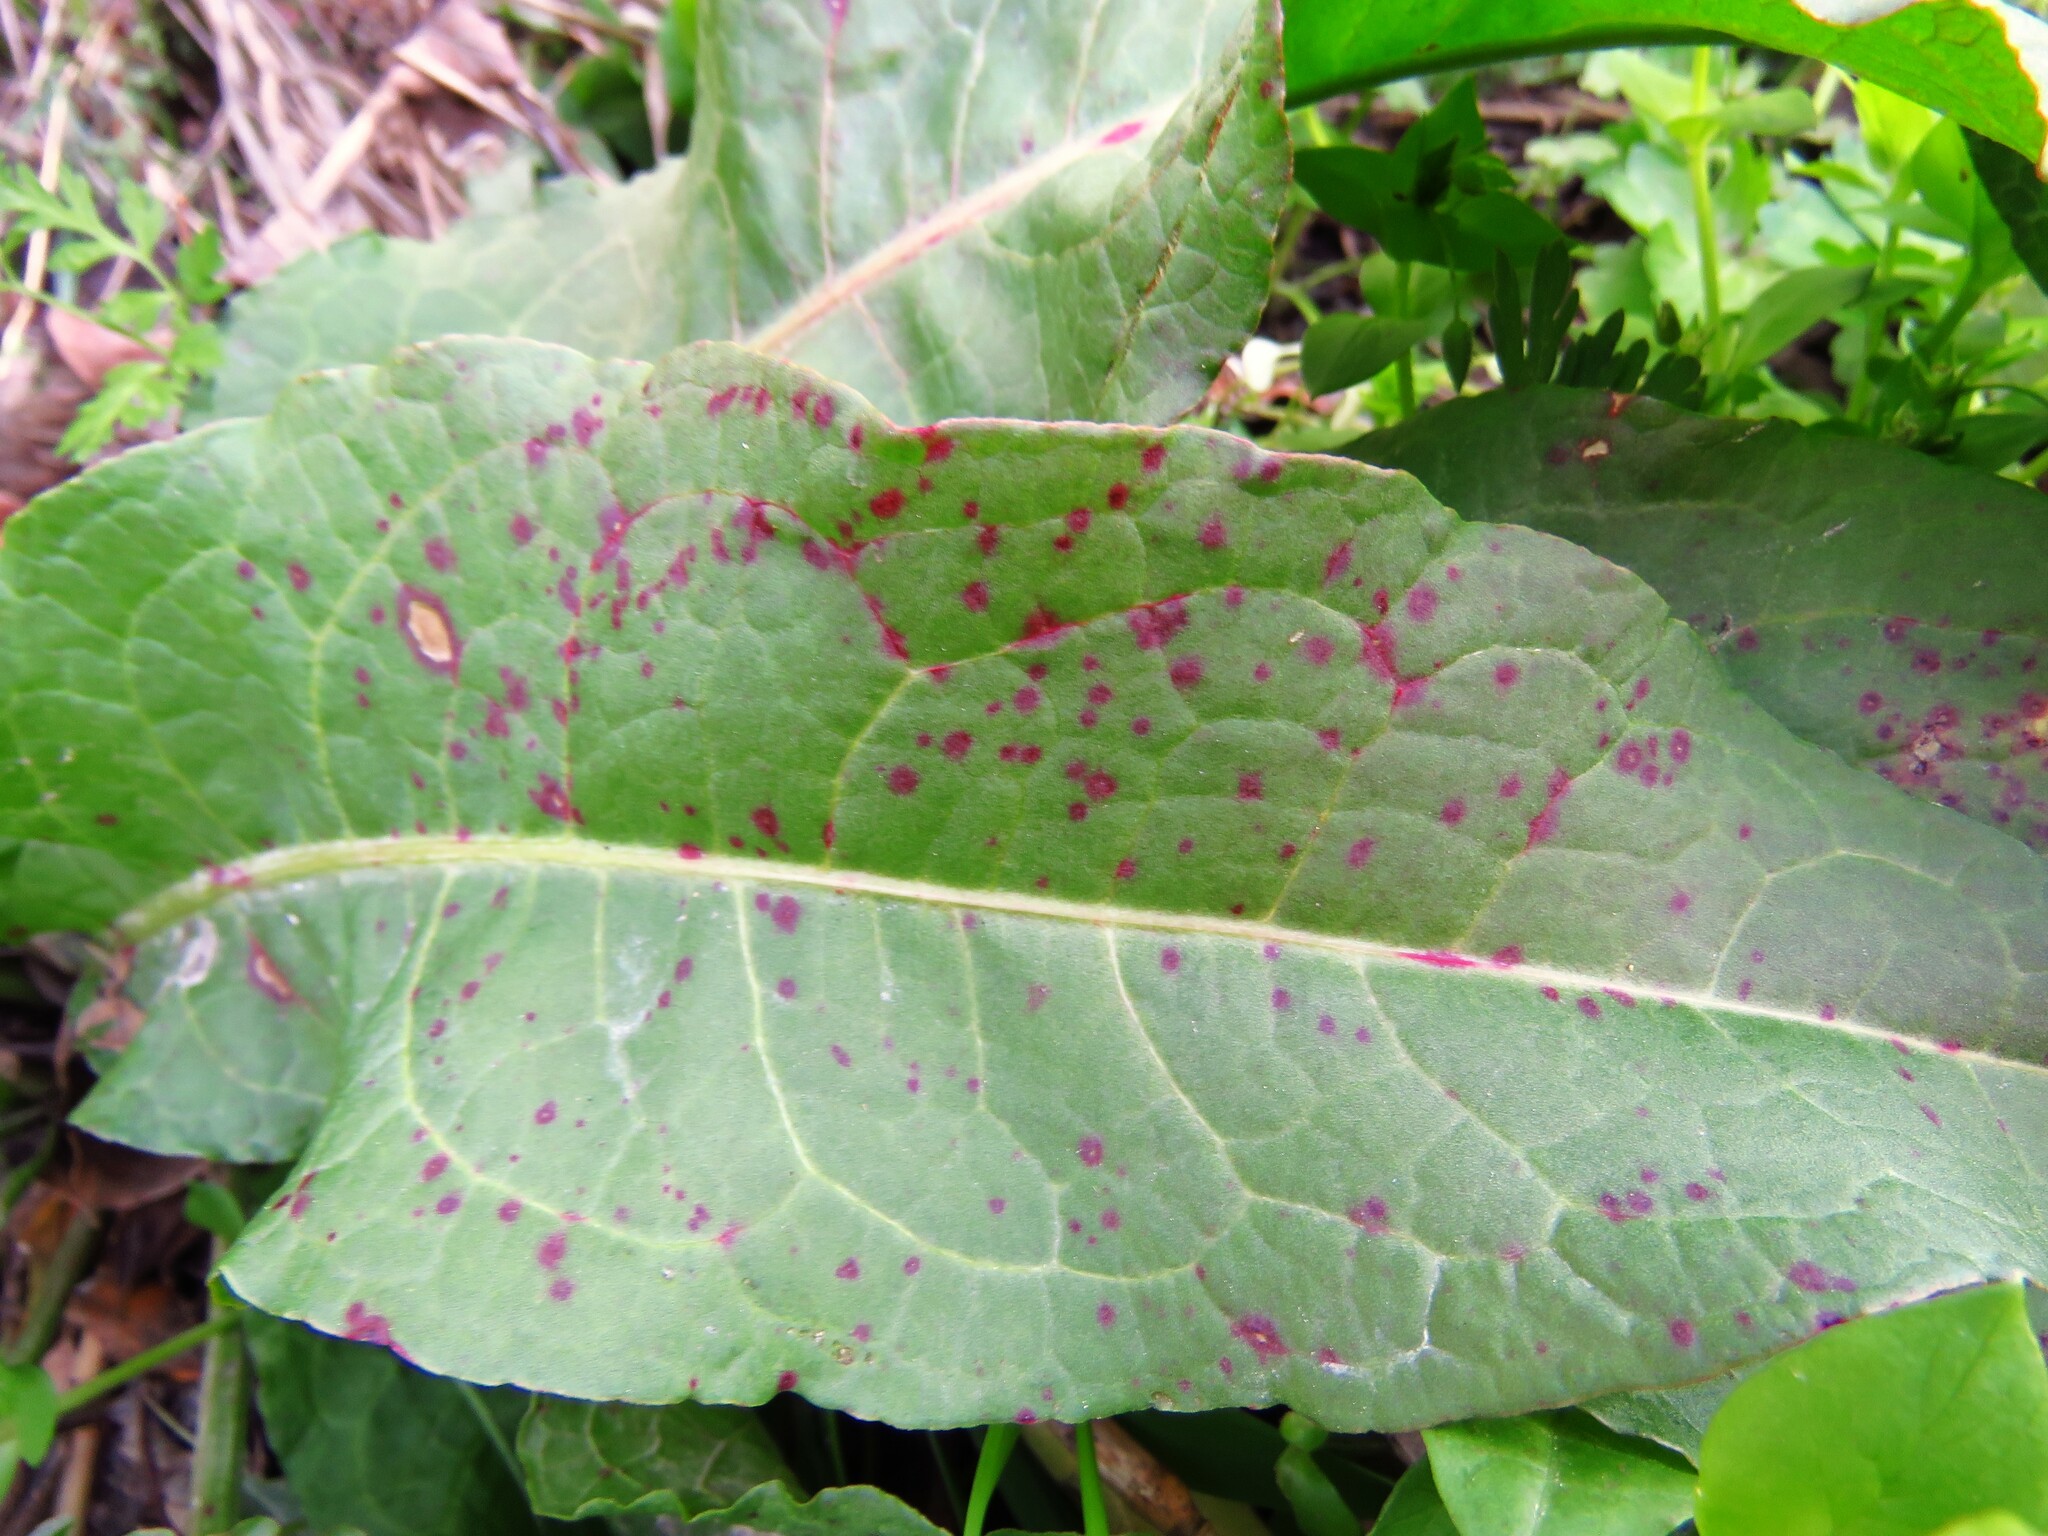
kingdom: Fungi
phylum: Ascomycota
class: Dothideomycetes
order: Mycosphaerellales
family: Mycosphaerellaceae
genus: Ramularia
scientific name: Ramularia rubella
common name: Red dock spot
